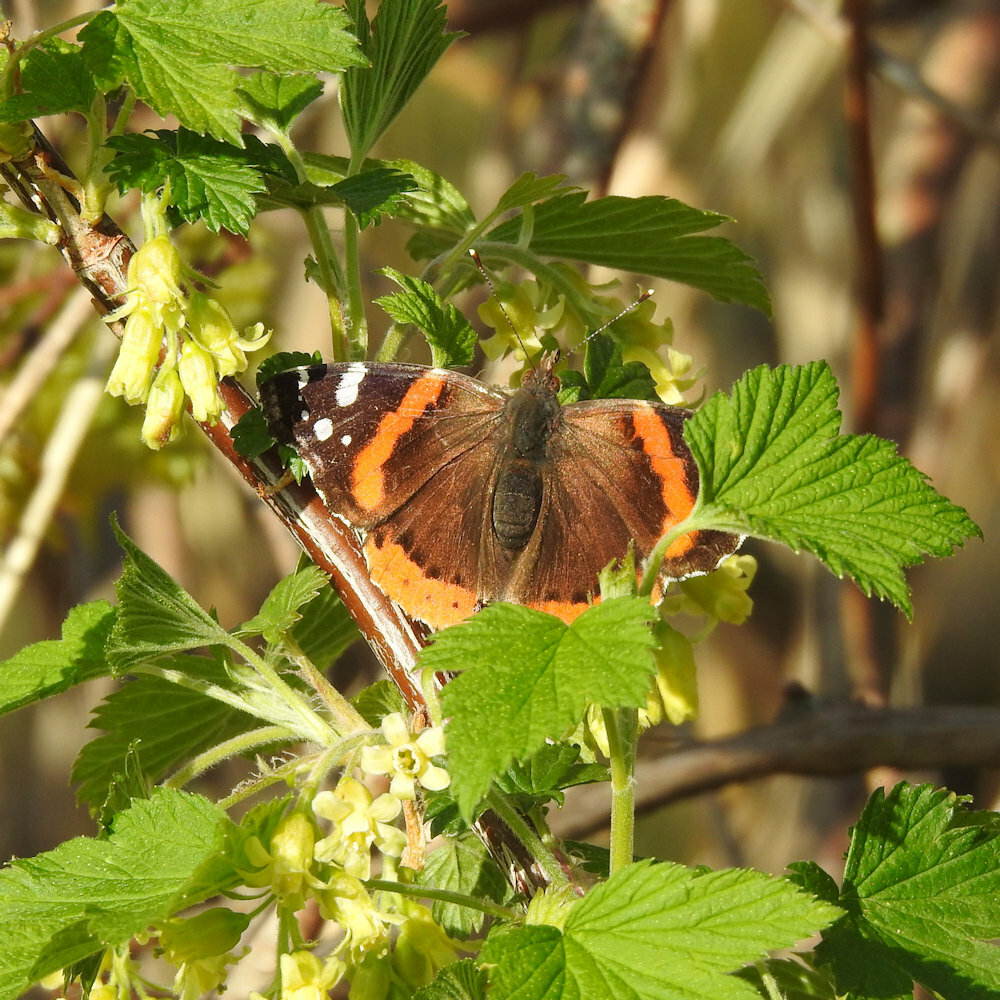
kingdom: Animalia
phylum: Arthropoda
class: Insecta
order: Lepidoptera
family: Nymphalidae
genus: Vanessa
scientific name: Vanessa atalanta
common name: Red admiral
